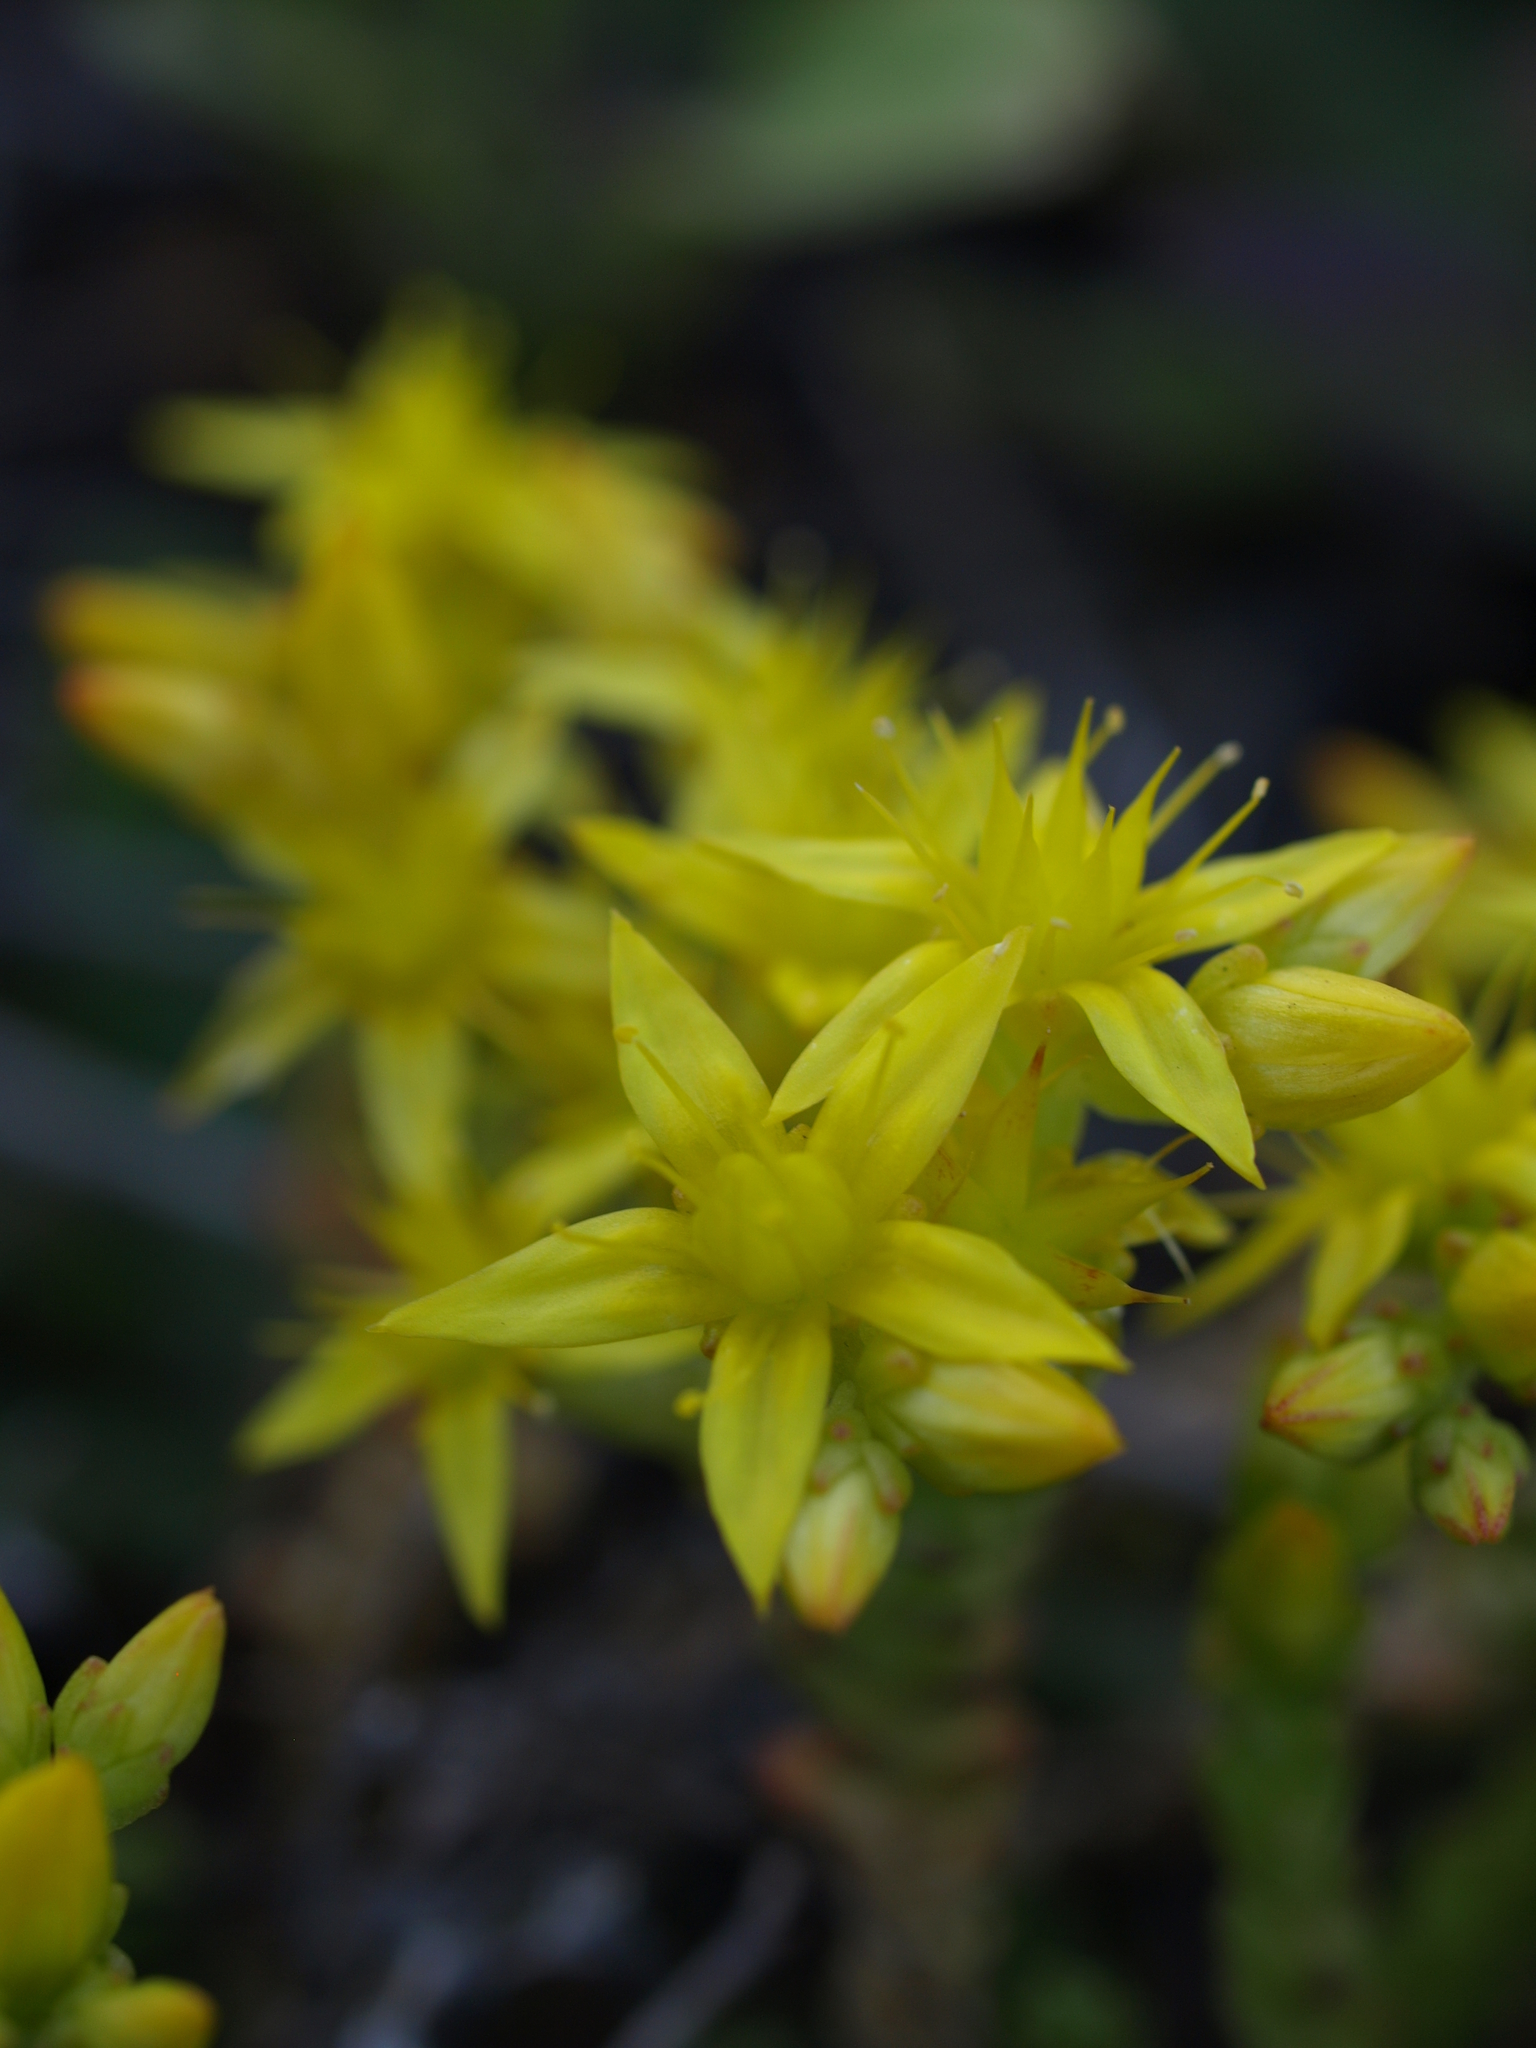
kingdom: Plantae
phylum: Tracheophyta
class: Magnoliopsida
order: Saxifragales
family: Crassulaceae
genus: Sedum
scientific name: Sedum acre
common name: Biting stonecrop
